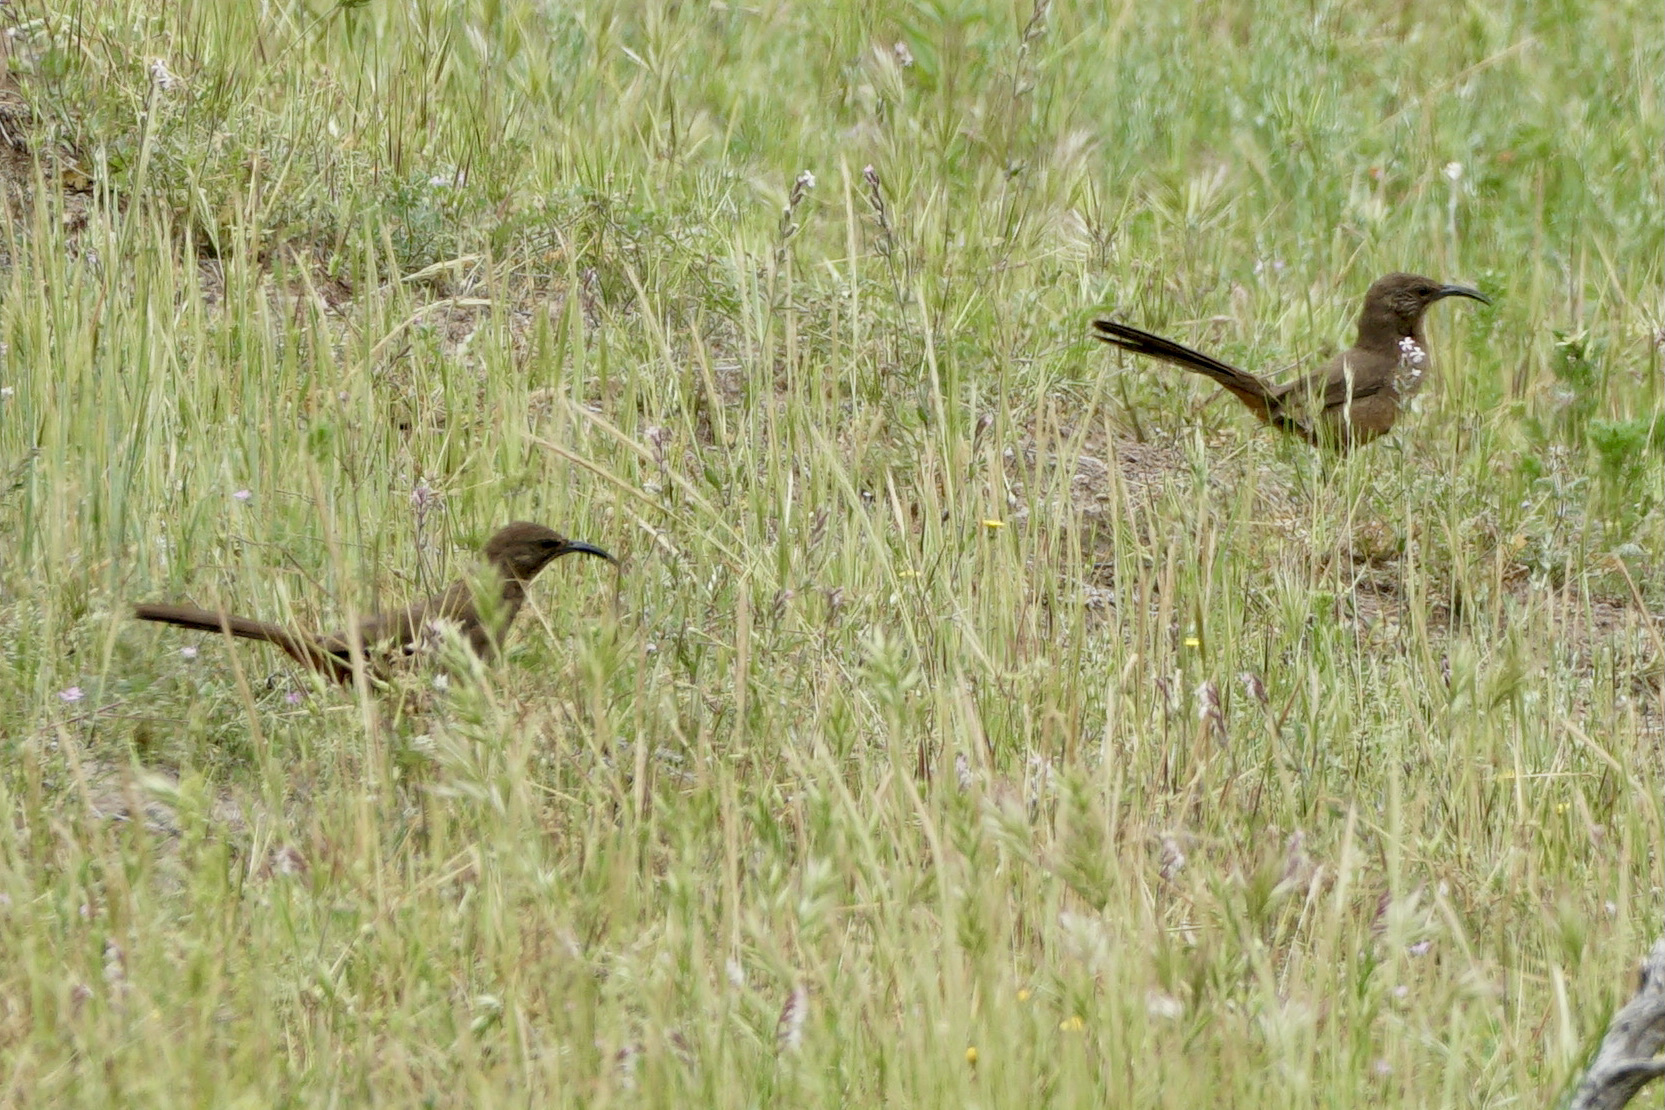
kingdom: Animalia
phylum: Chordata
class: Aves
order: Passeriformes
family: Mimidae
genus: Toxostoma
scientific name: Toxostoma redivivum
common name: California thrasher
